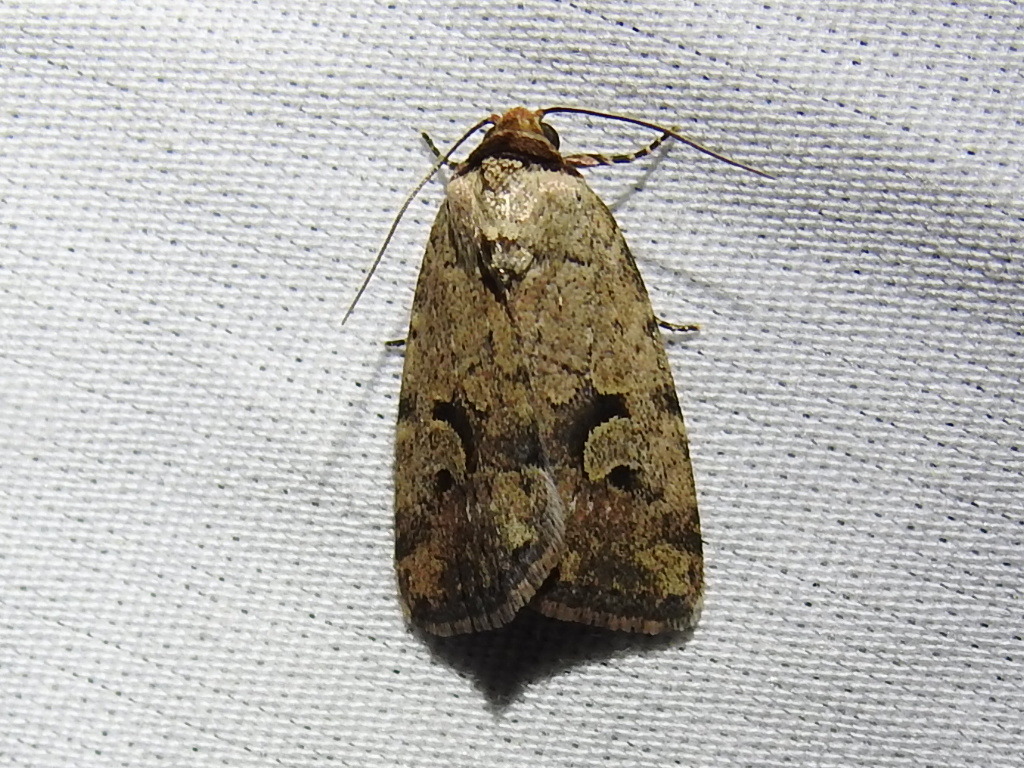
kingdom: Animalia
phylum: Arthropoda
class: Insecta
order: Lepidoptera
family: Noctuidae
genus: Elaphria
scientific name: Elaphria festivoides
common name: Festive midget
